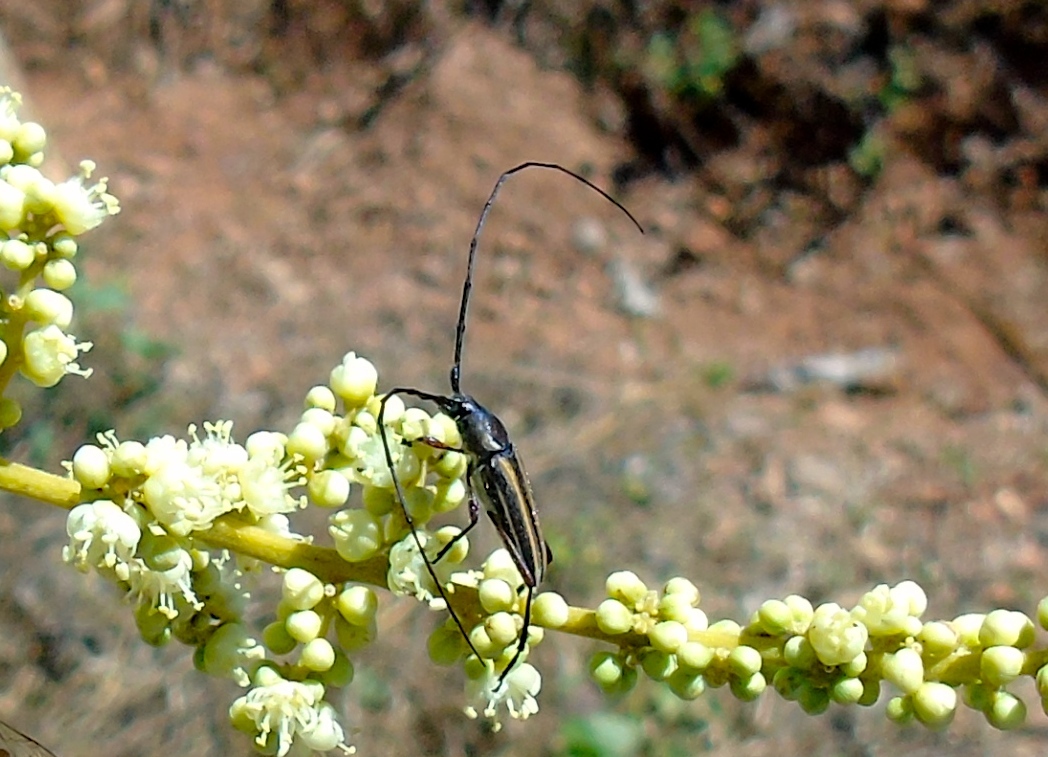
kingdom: Animalia
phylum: Arthropoda
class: Insecta
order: Coleoptera
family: Cerambycidae
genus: Sphaenothecus
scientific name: Sphaenothecus bilineatus
